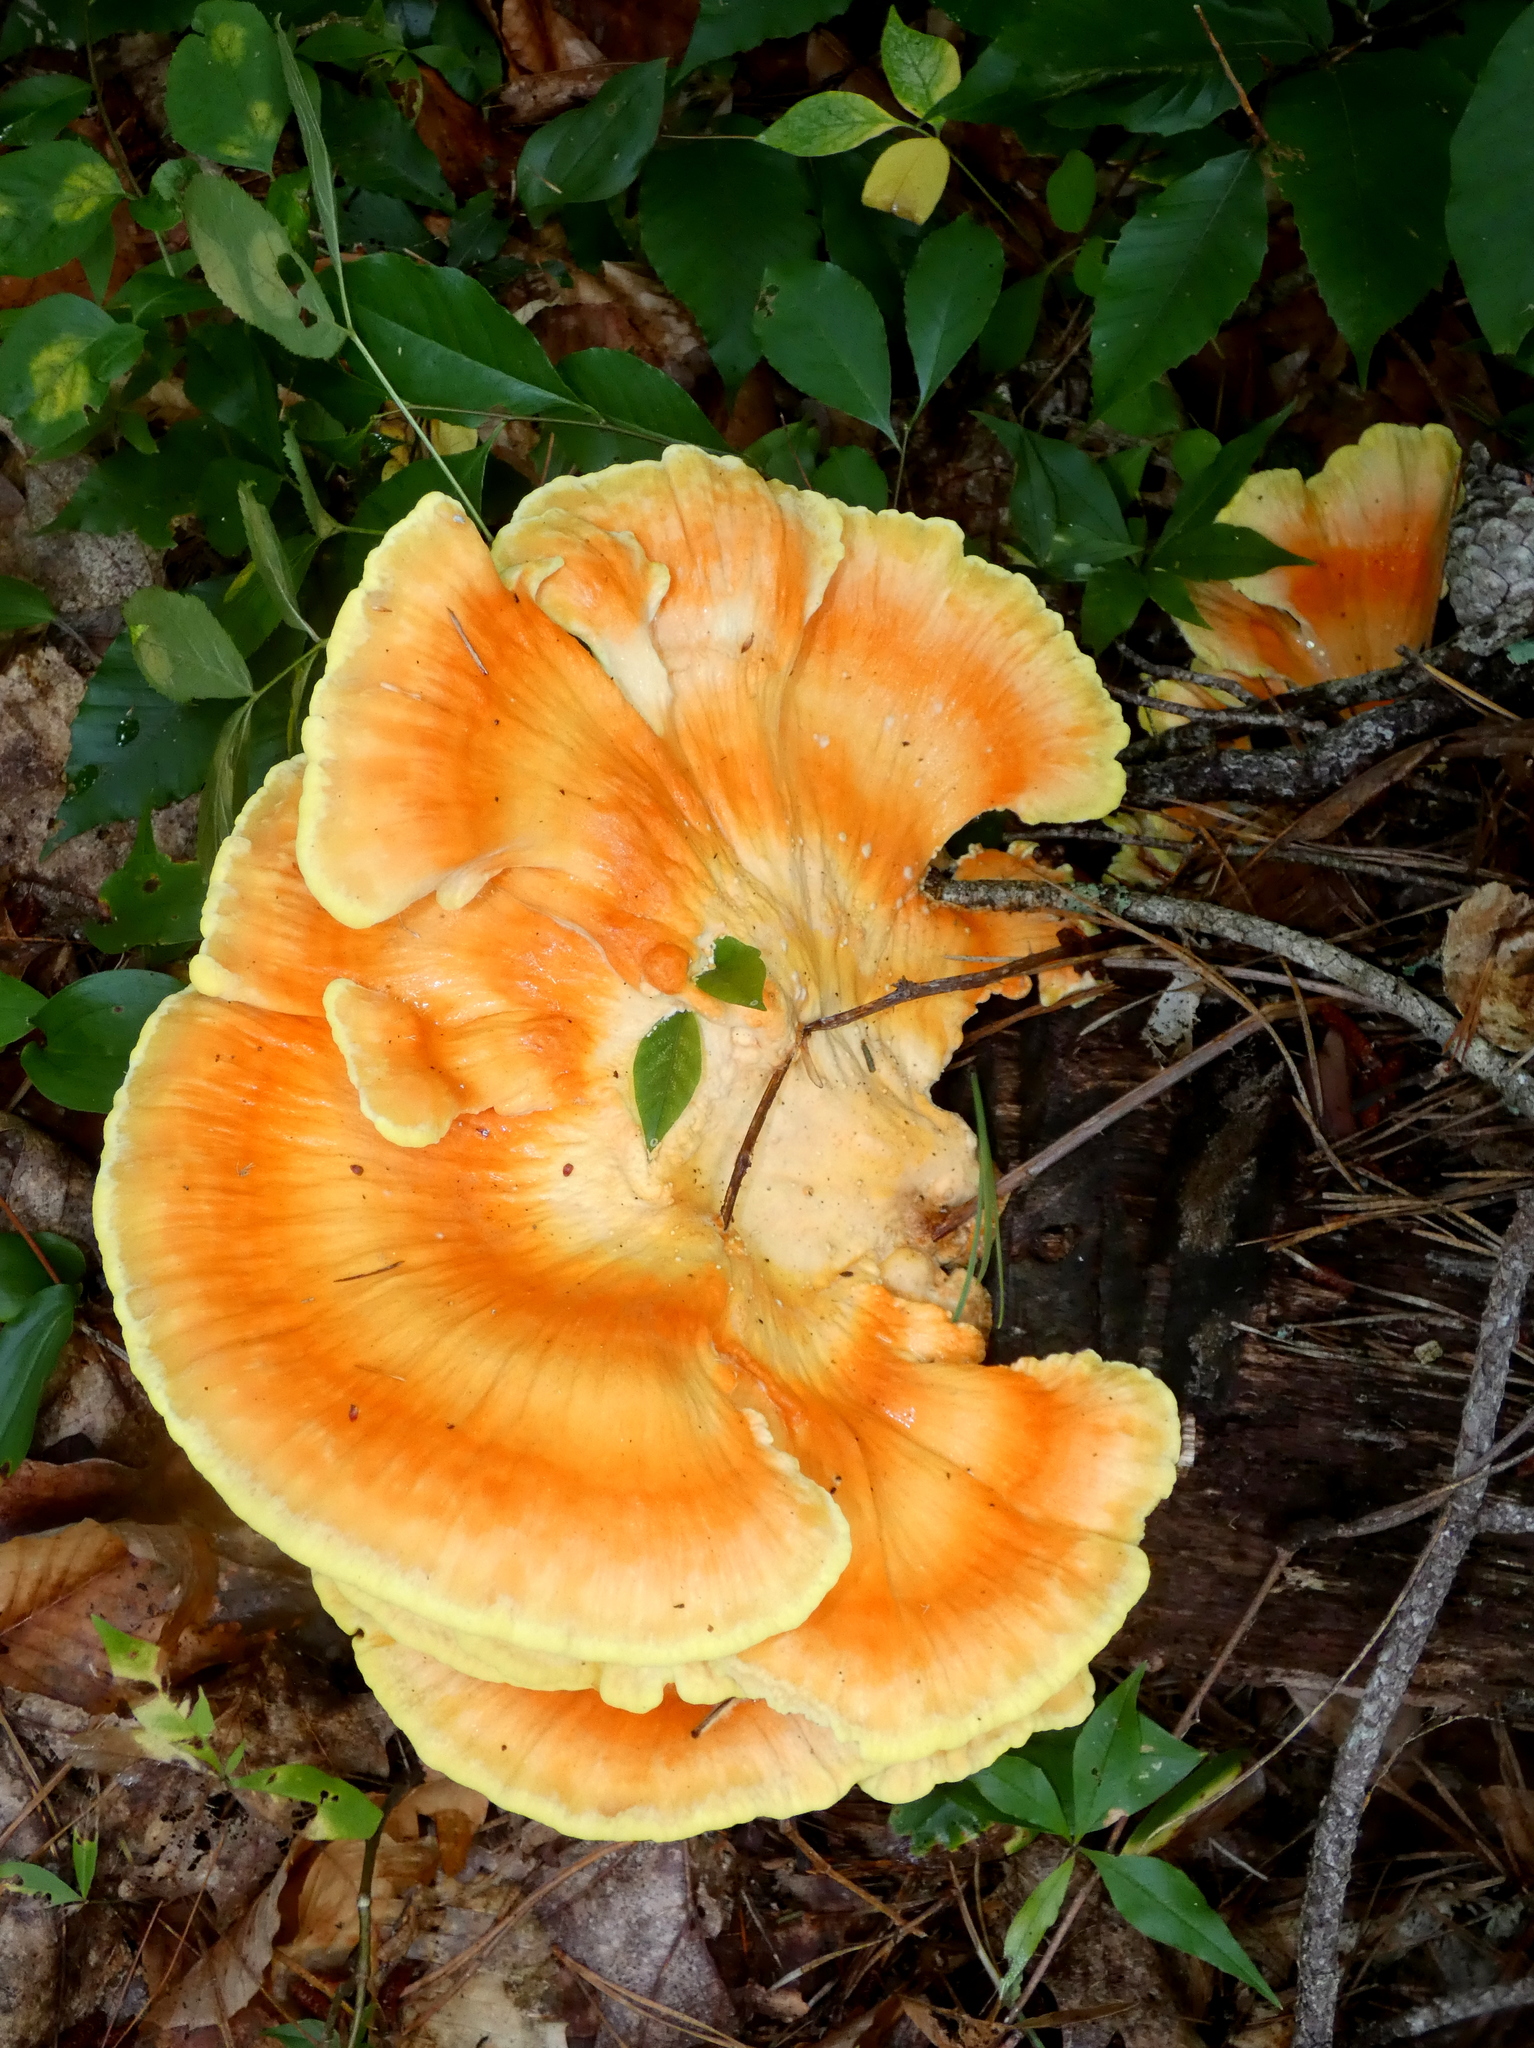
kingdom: Fungi
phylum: Basidiomycota
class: Agaricomycetes
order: Polyporales
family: Laetiporaceae
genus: Laetiporus
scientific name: Laetiporus sulphureus
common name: Chicken of the woods
